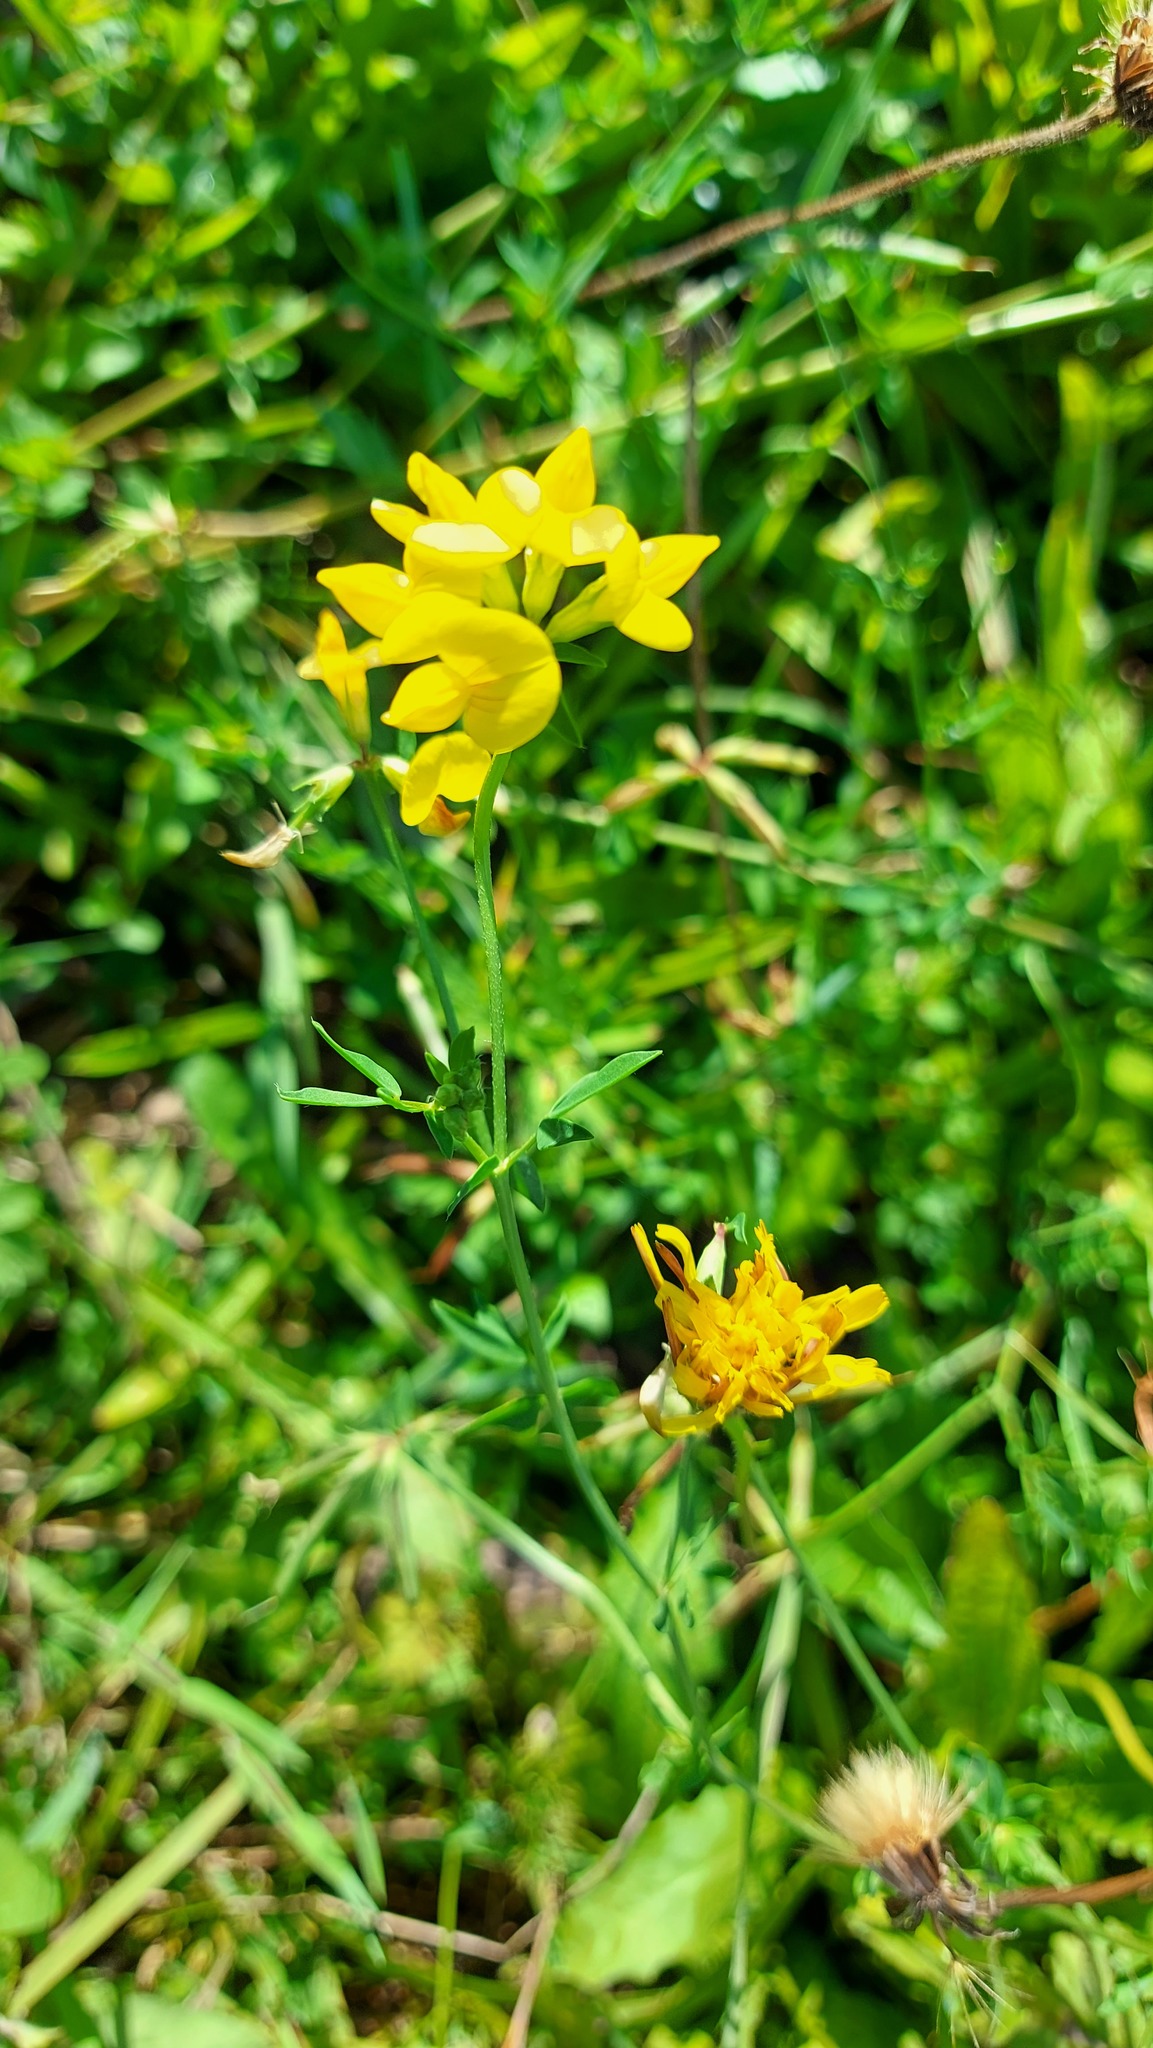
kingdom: Plantae
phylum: Tracheophyta
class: Magnoliopsida
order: Fabales
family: Fabaceae
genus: Lotus
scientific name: Lotus corniculatus
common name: Common bird's-foot-trefoil
